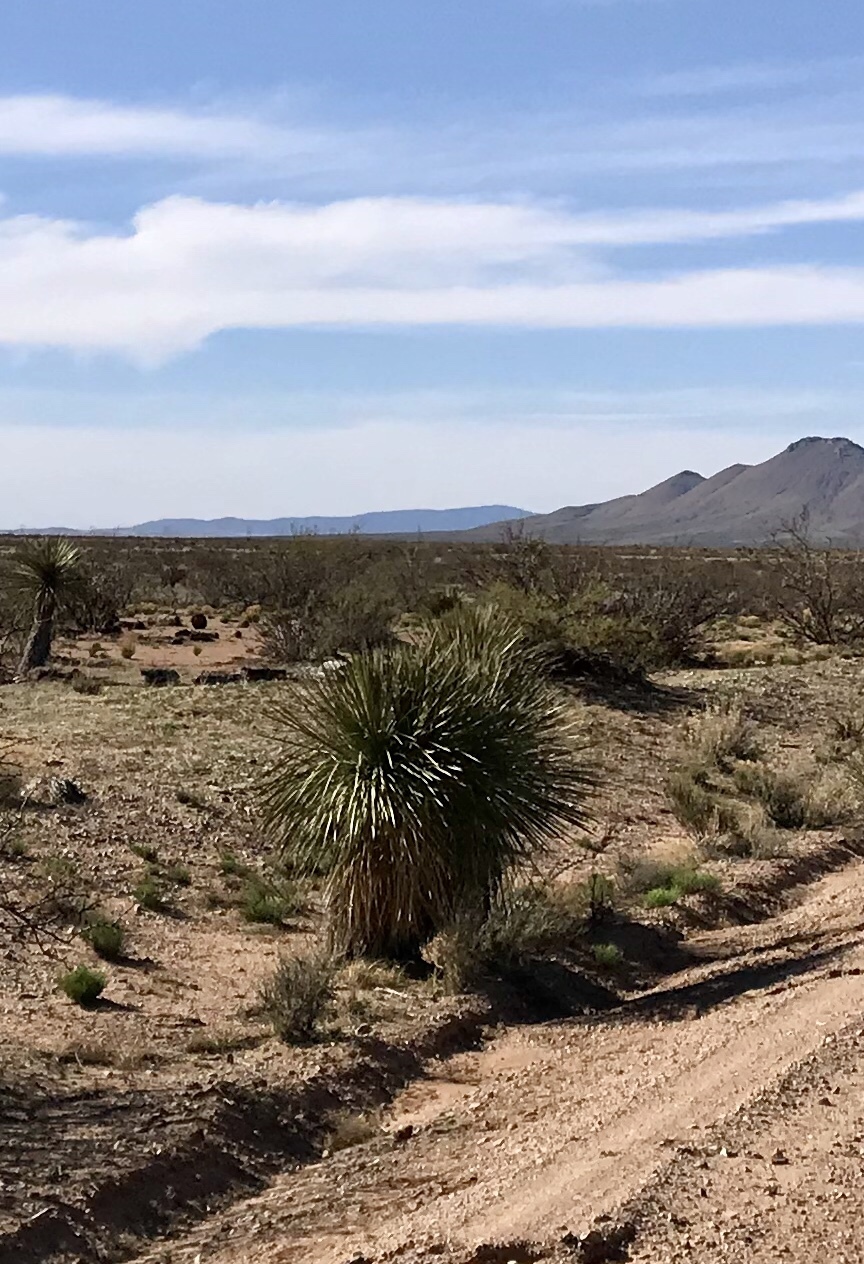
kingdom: Plantae
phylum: Tracheophyta
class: Liliopsida
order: Asparagales
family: Asparagaceae
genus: Yucca
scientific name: Yucca elata
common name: Palmella
